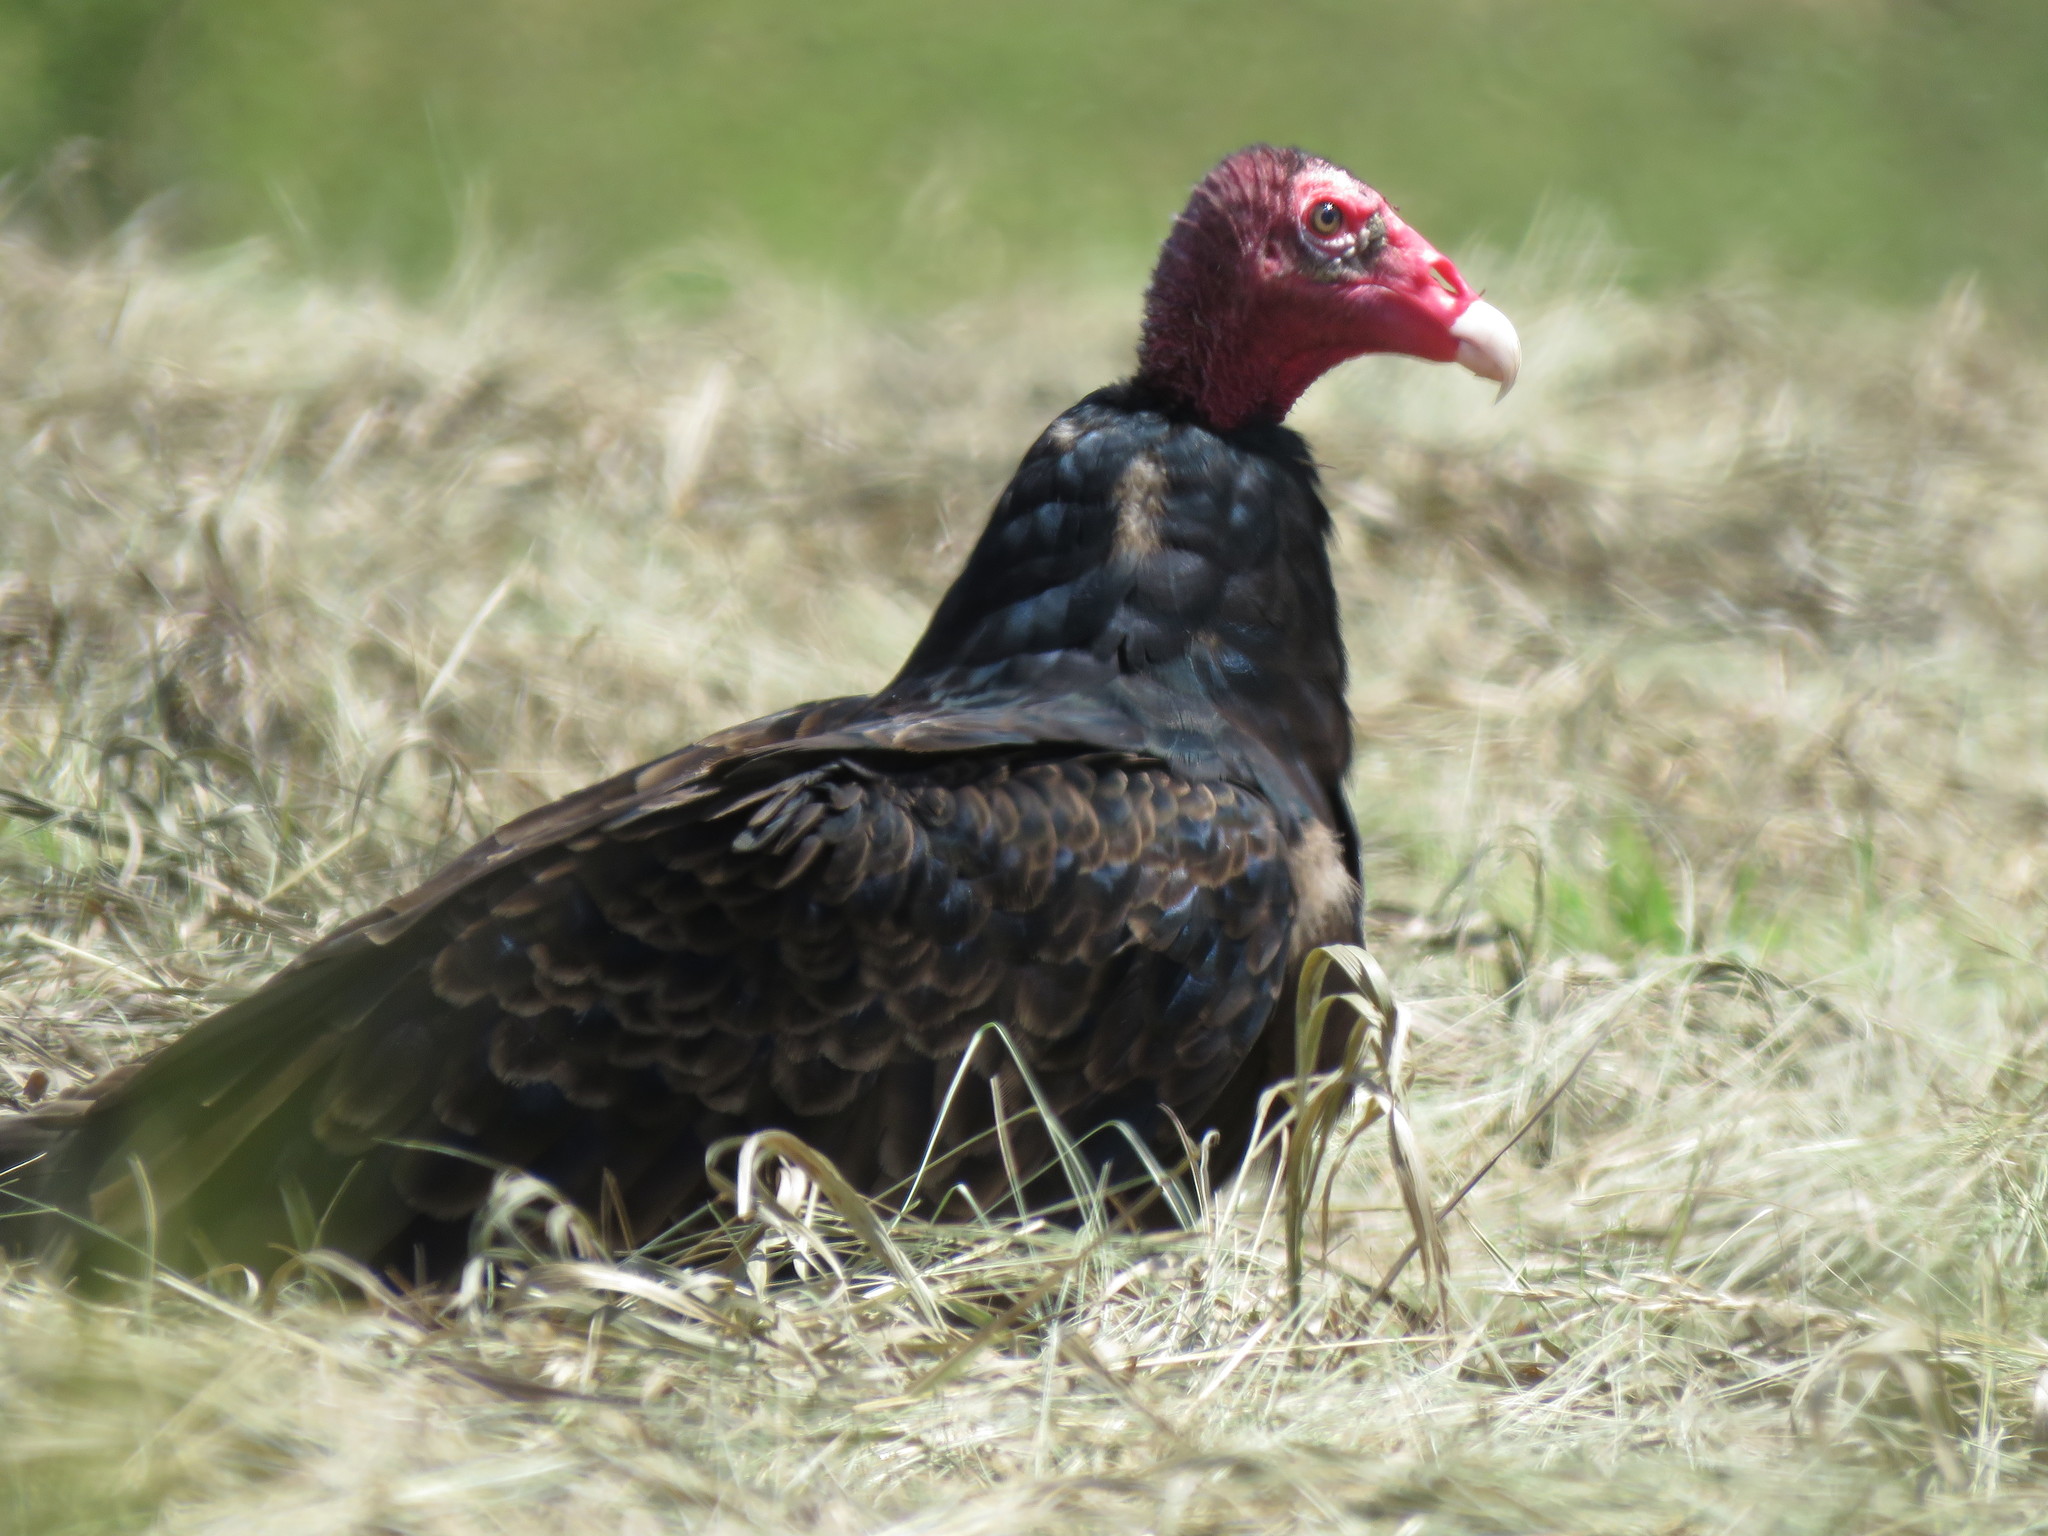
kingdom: Animalia
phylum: Chordata
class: Aves
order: Accipitriformes
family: Cathartidae
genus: Cathartes
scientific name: Cathartes aura
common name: Turkey vulture
